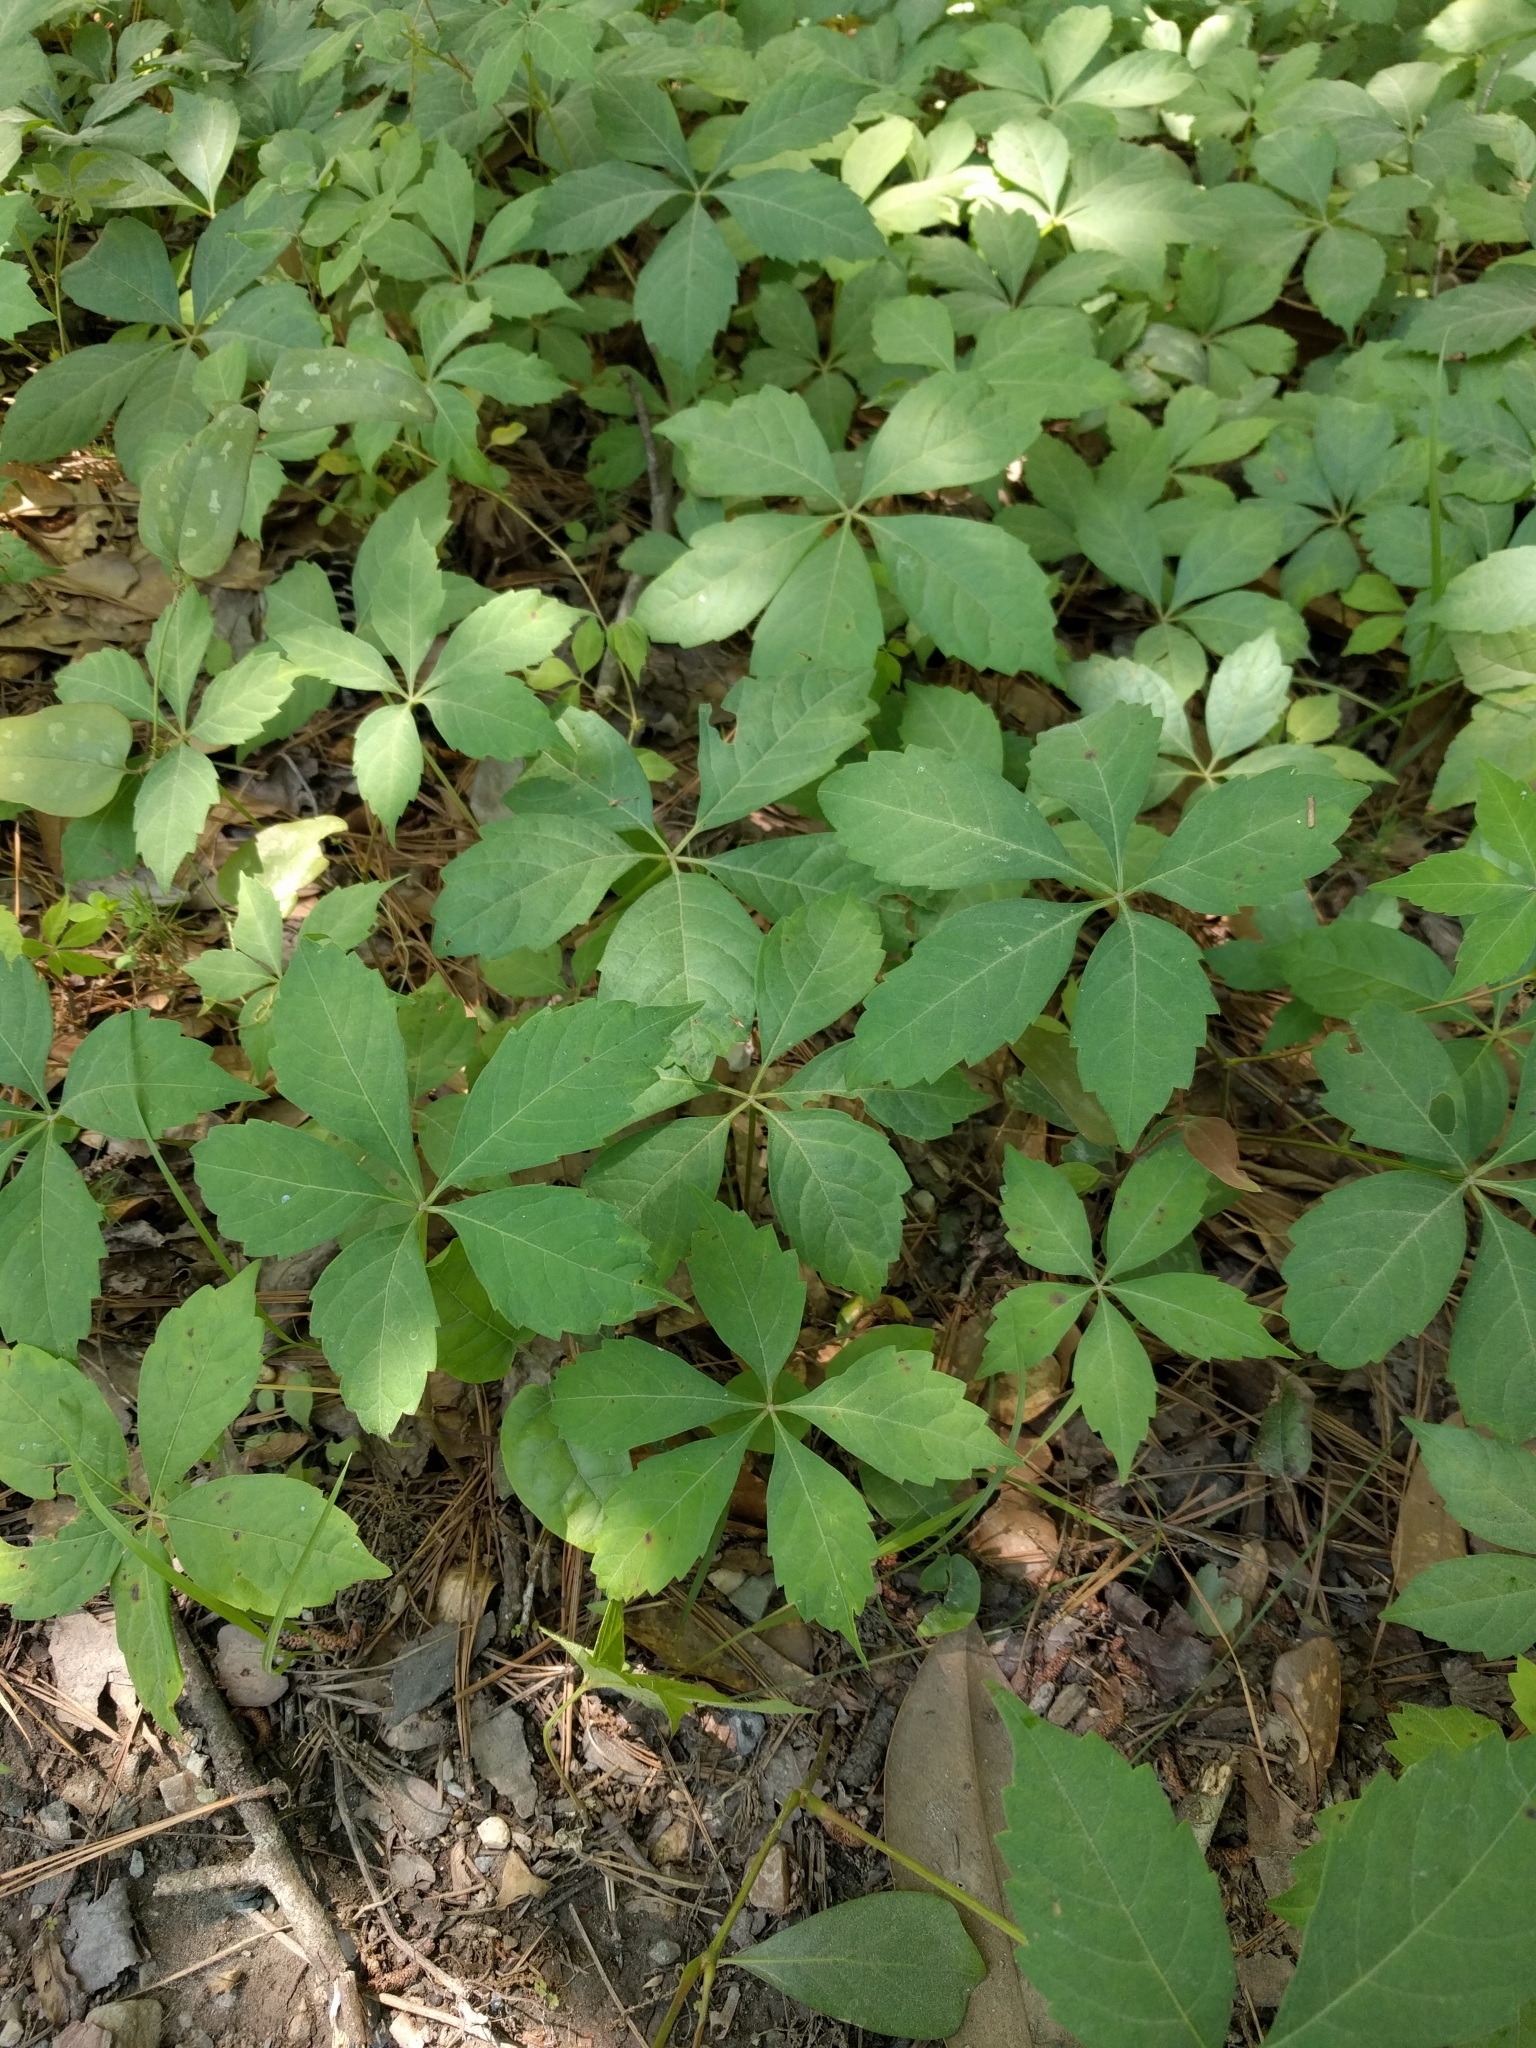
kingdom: Plantae
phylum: Tracheophyta
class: Magnoliopsida
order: Vitales
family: Vitaceae
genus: Parthenocissus
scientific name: Parthenocissus quinquefolia
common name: Virginia-creeper
